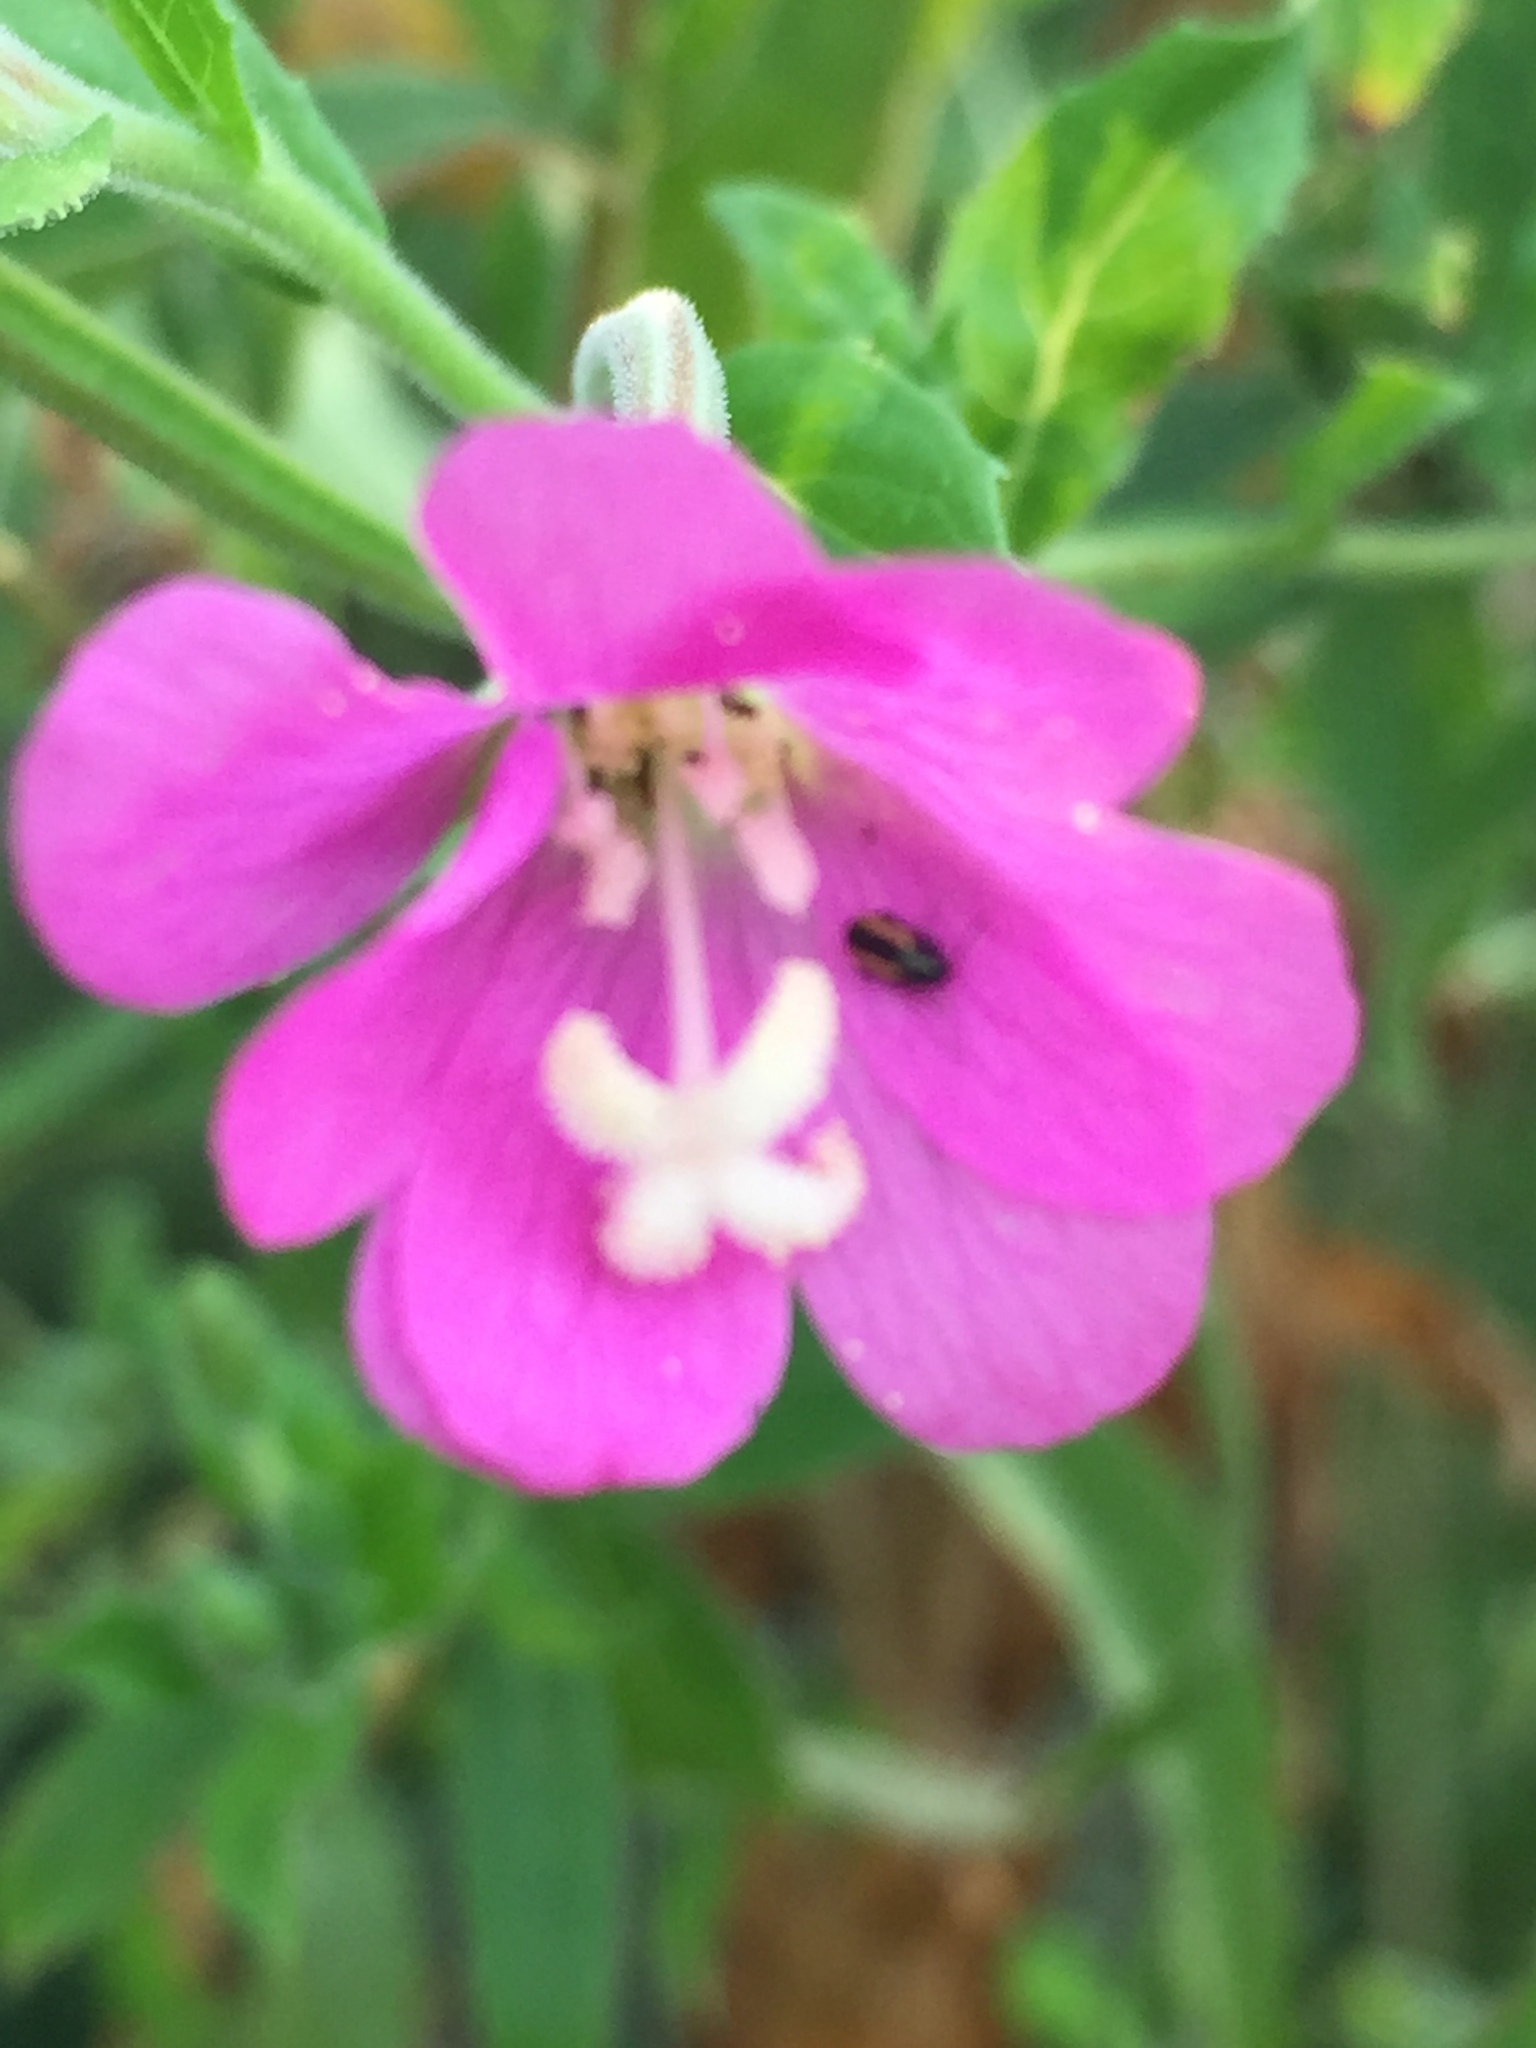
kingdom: Plantae
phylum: Tracheophyta
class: Magnoliopsida
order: Myrtales
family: Onagraceae
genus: Epilobium
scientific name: Epilobium hirsutum
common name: Great willowherb
